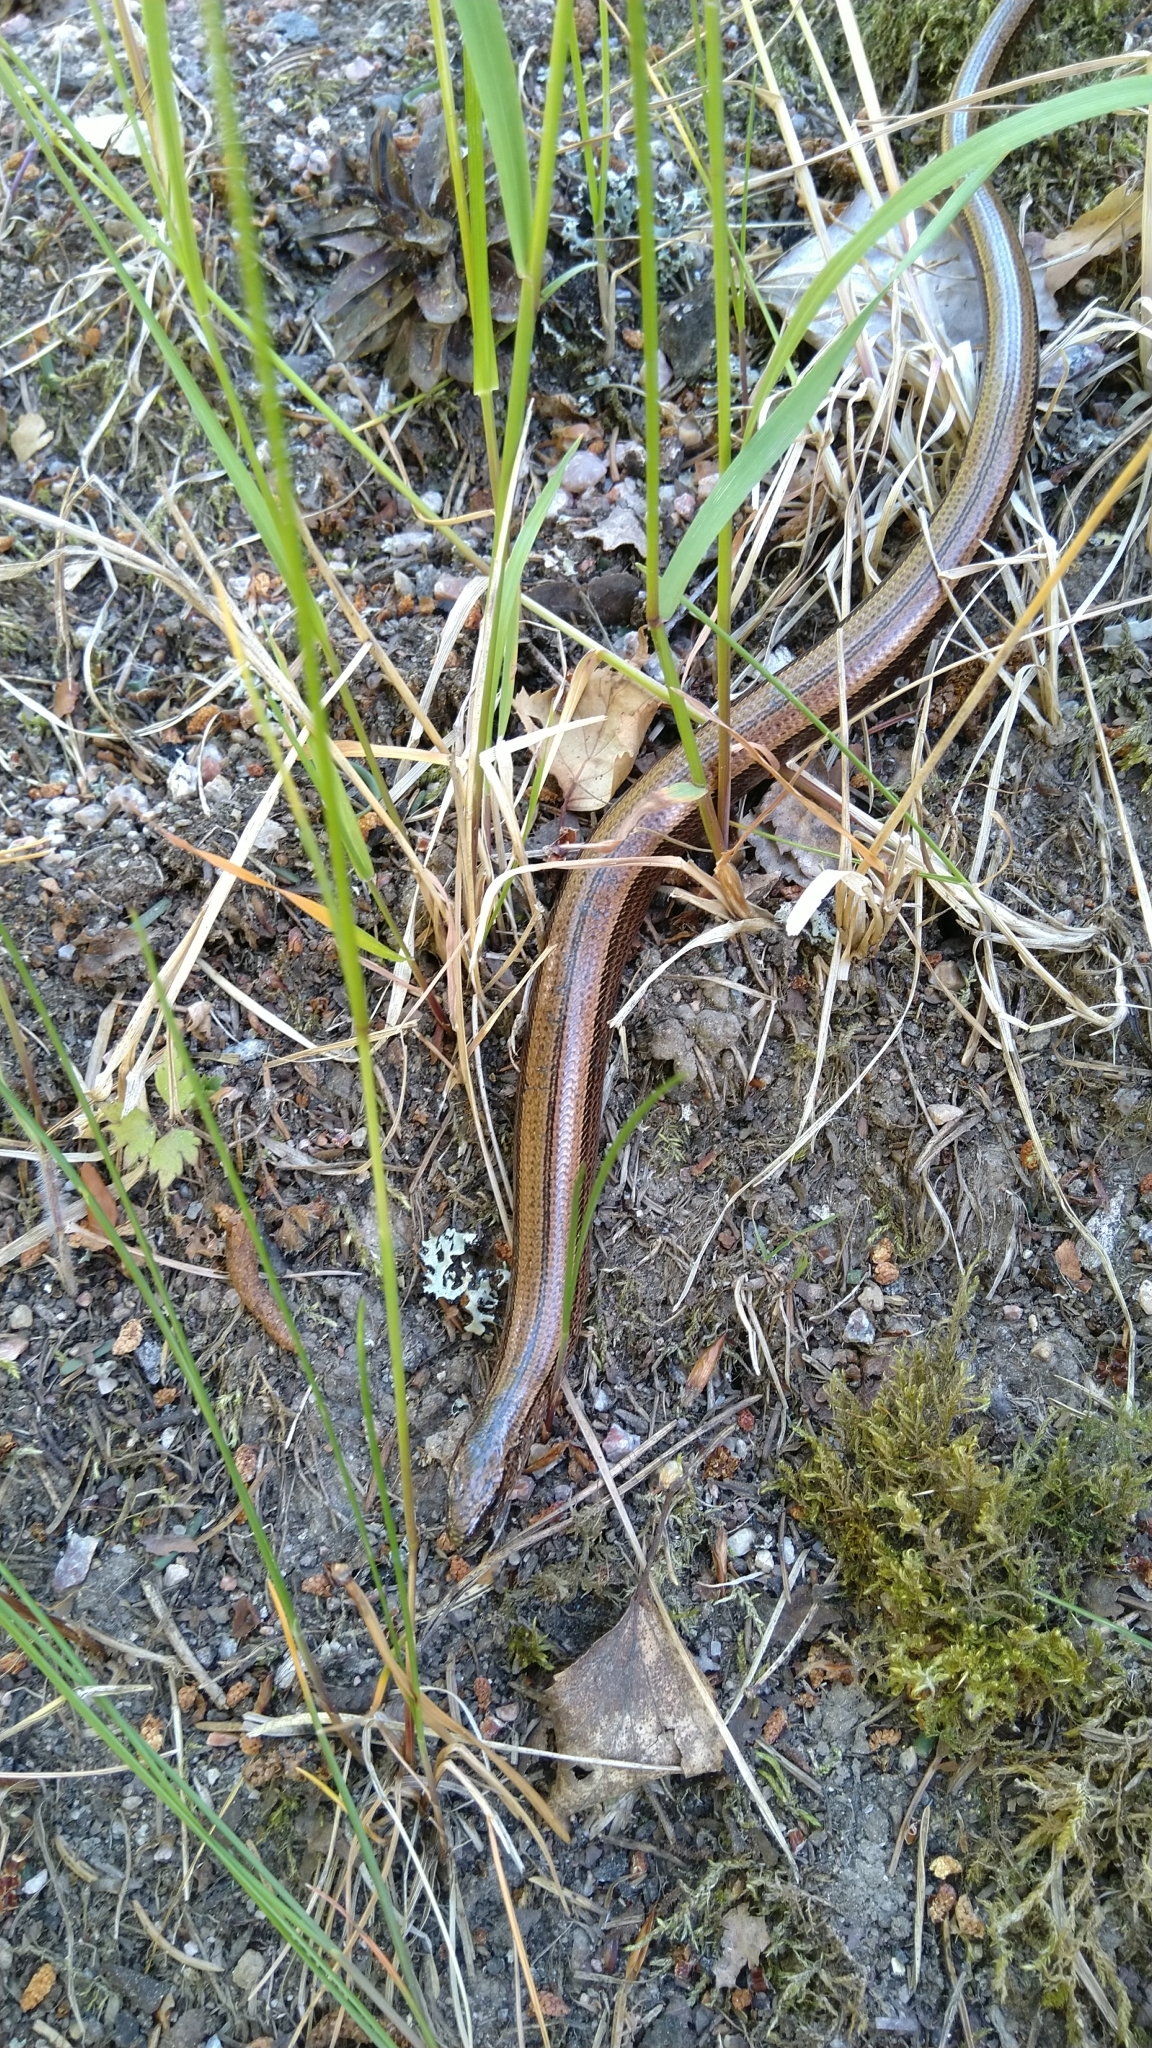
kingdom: Animalia
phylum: Chordata
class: Squamata
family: Anguidae
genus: Anguis
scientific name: Anguis colchica
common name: Slow worm
